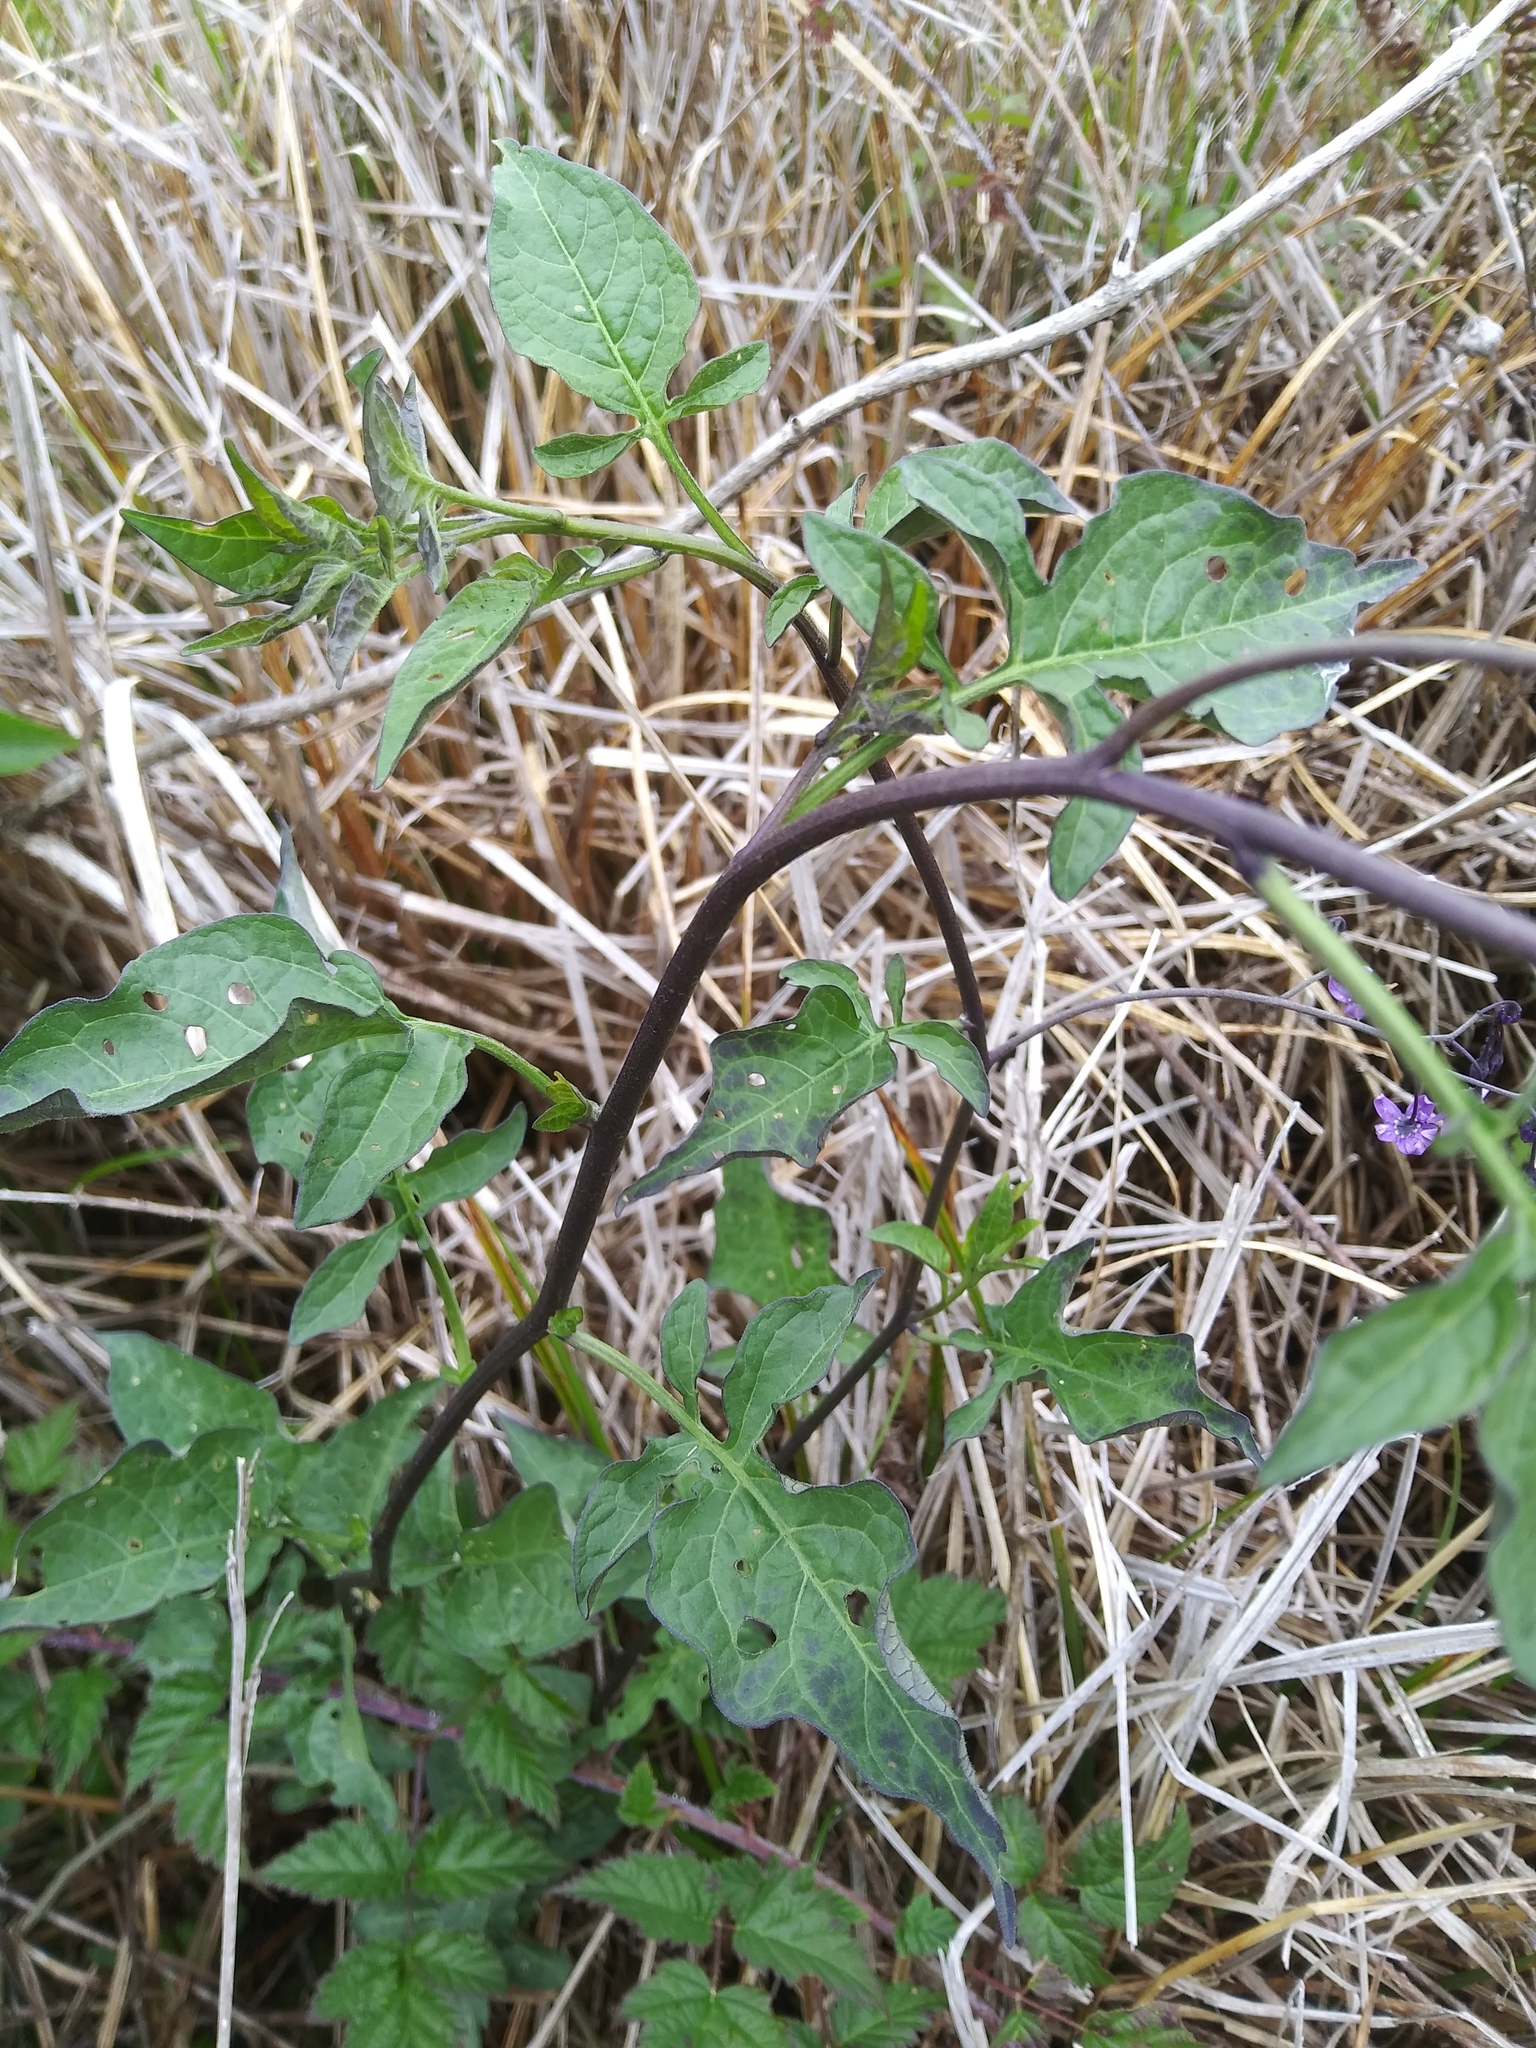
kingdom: Plantae
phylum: Tracheophyta
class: Magnoliopsida
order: Solanales
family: Solanaceae
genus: Solanum
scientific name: Solanum dulcamara
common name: Climbing nightshade
